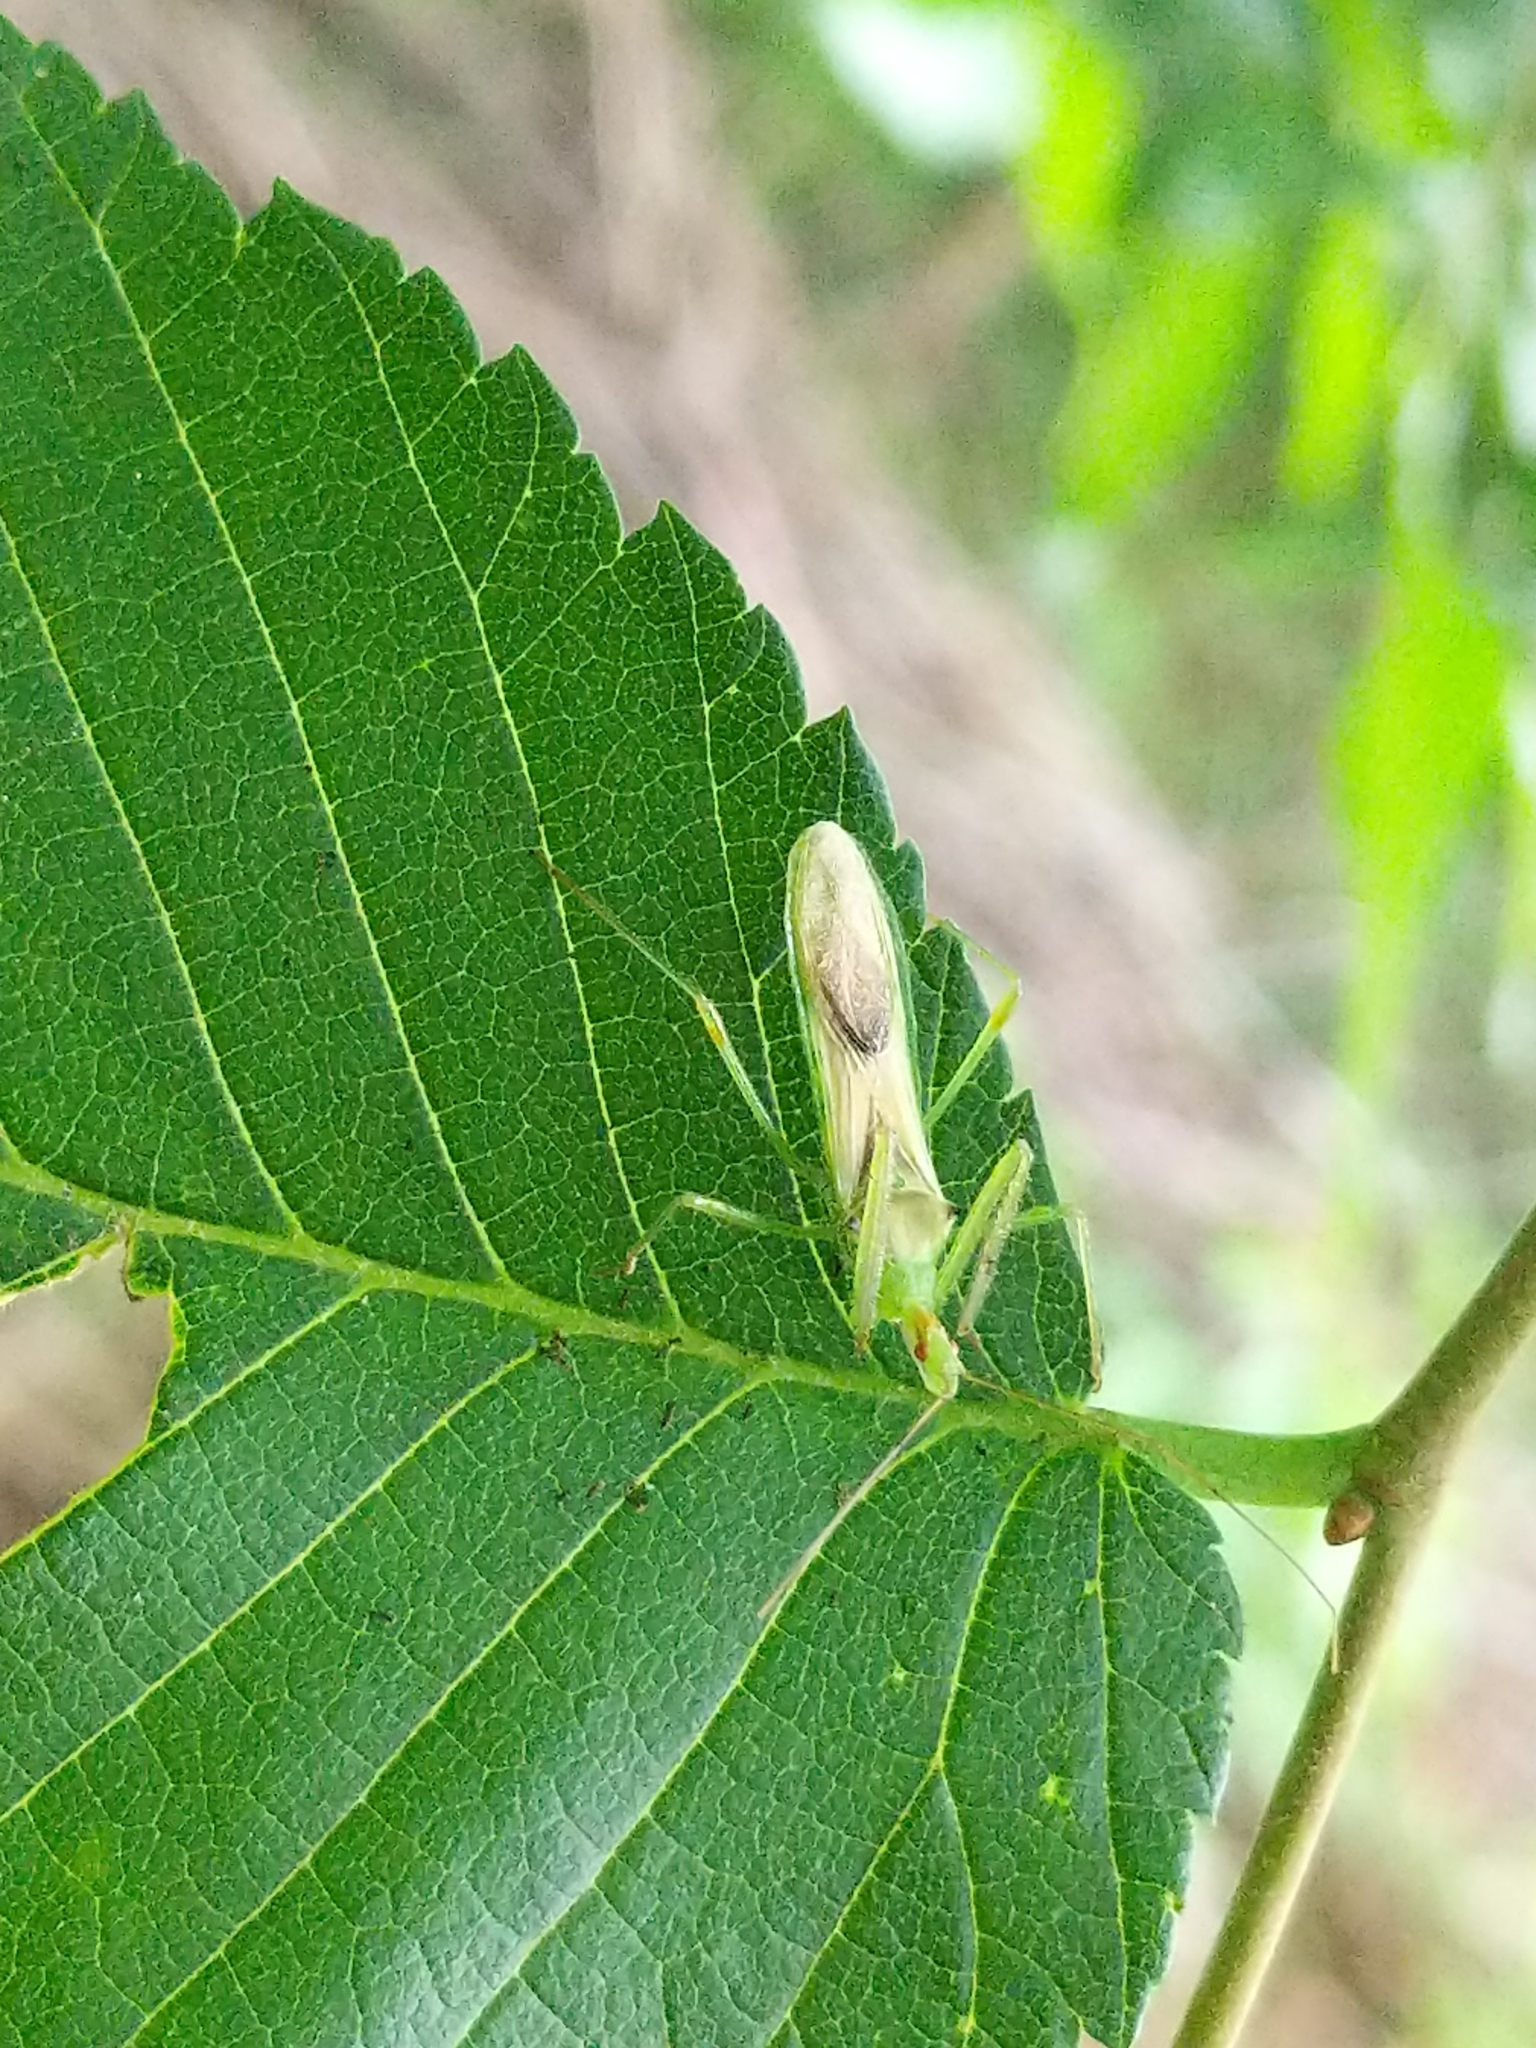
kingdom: Animalia
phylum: Arthropoda
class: Insecta
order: Hemiptera
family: Reduviidae
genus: Zelus
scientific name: Zelus luridus
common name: Pale green assassin bug
